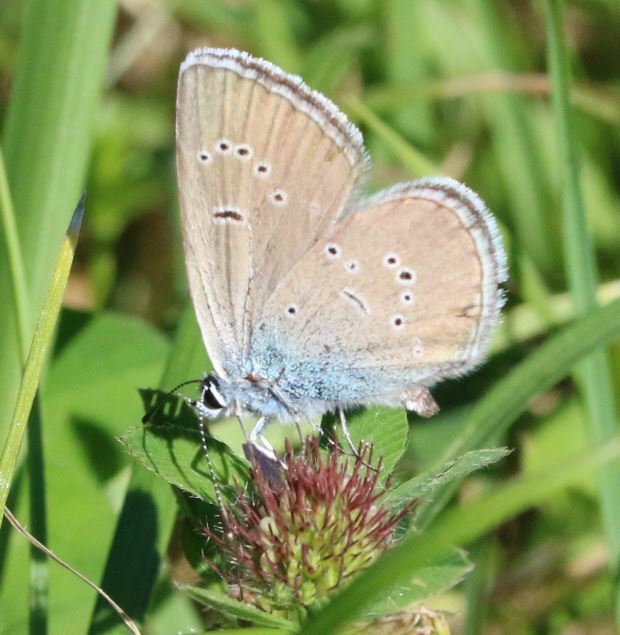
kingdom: Animalia
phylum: Arthropoda
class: Insecta
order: Lepidoptera
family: Lycaenidae
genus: Cyaniris
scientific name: Cyaniris semiargus
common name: Mazarine blue
